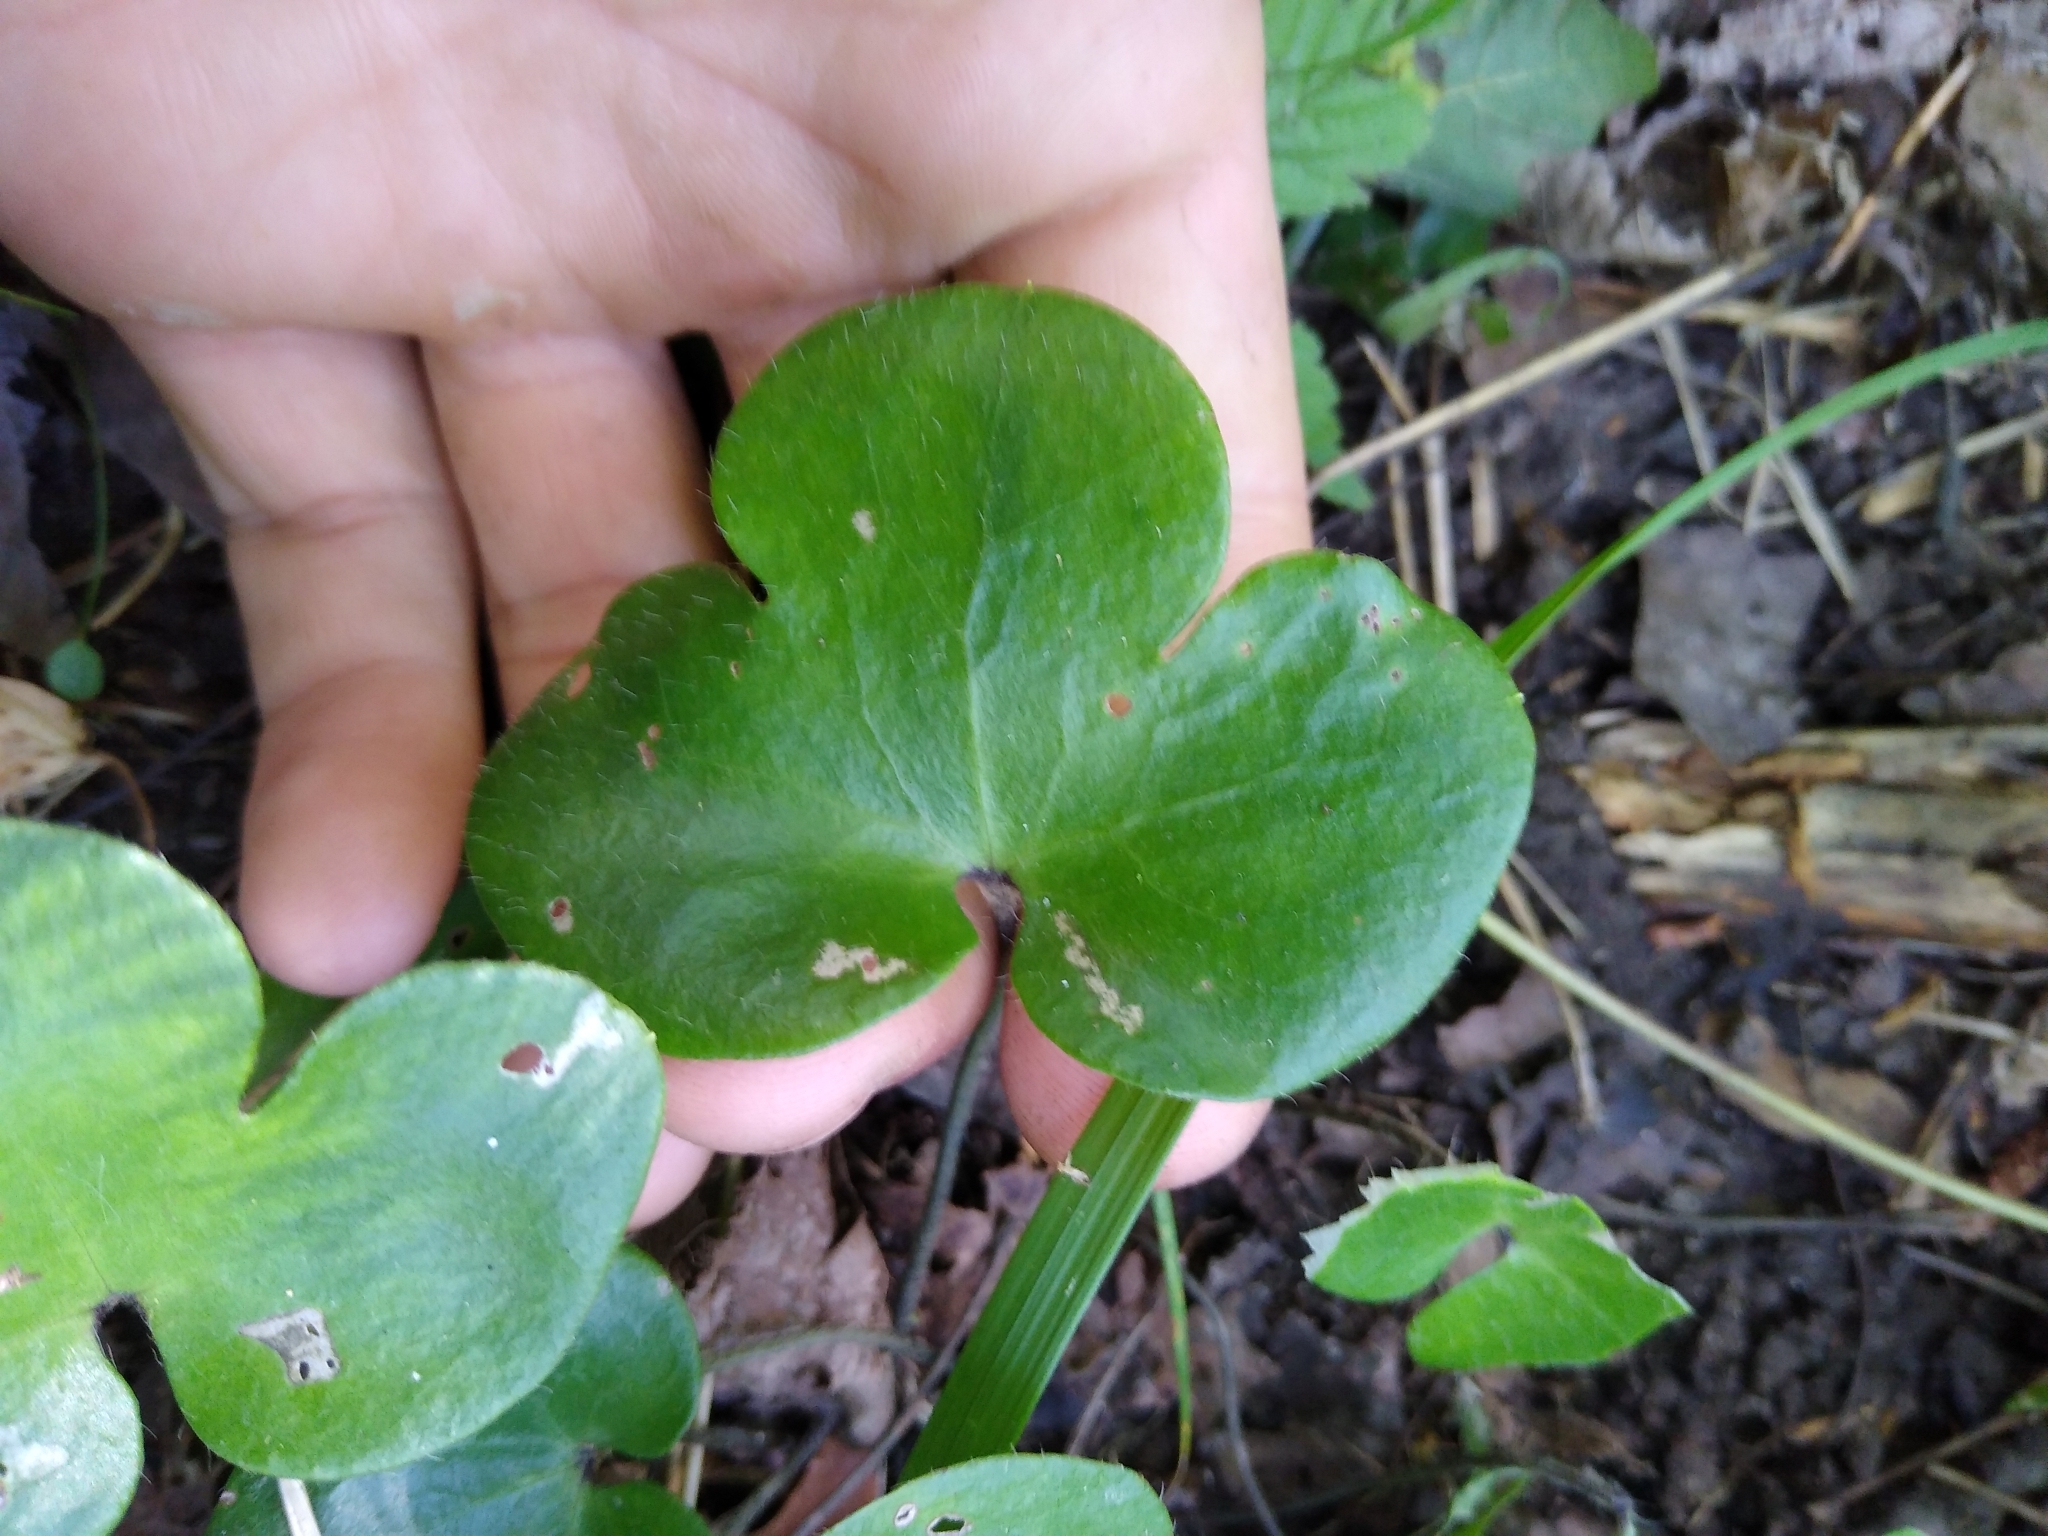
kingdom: Plantae
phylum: Tracheophyta
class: Magnoliopsida
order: Ranunculales
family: Ranunculaceae
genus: Hepatica
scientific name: Hepatica americana
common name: American hepatica
